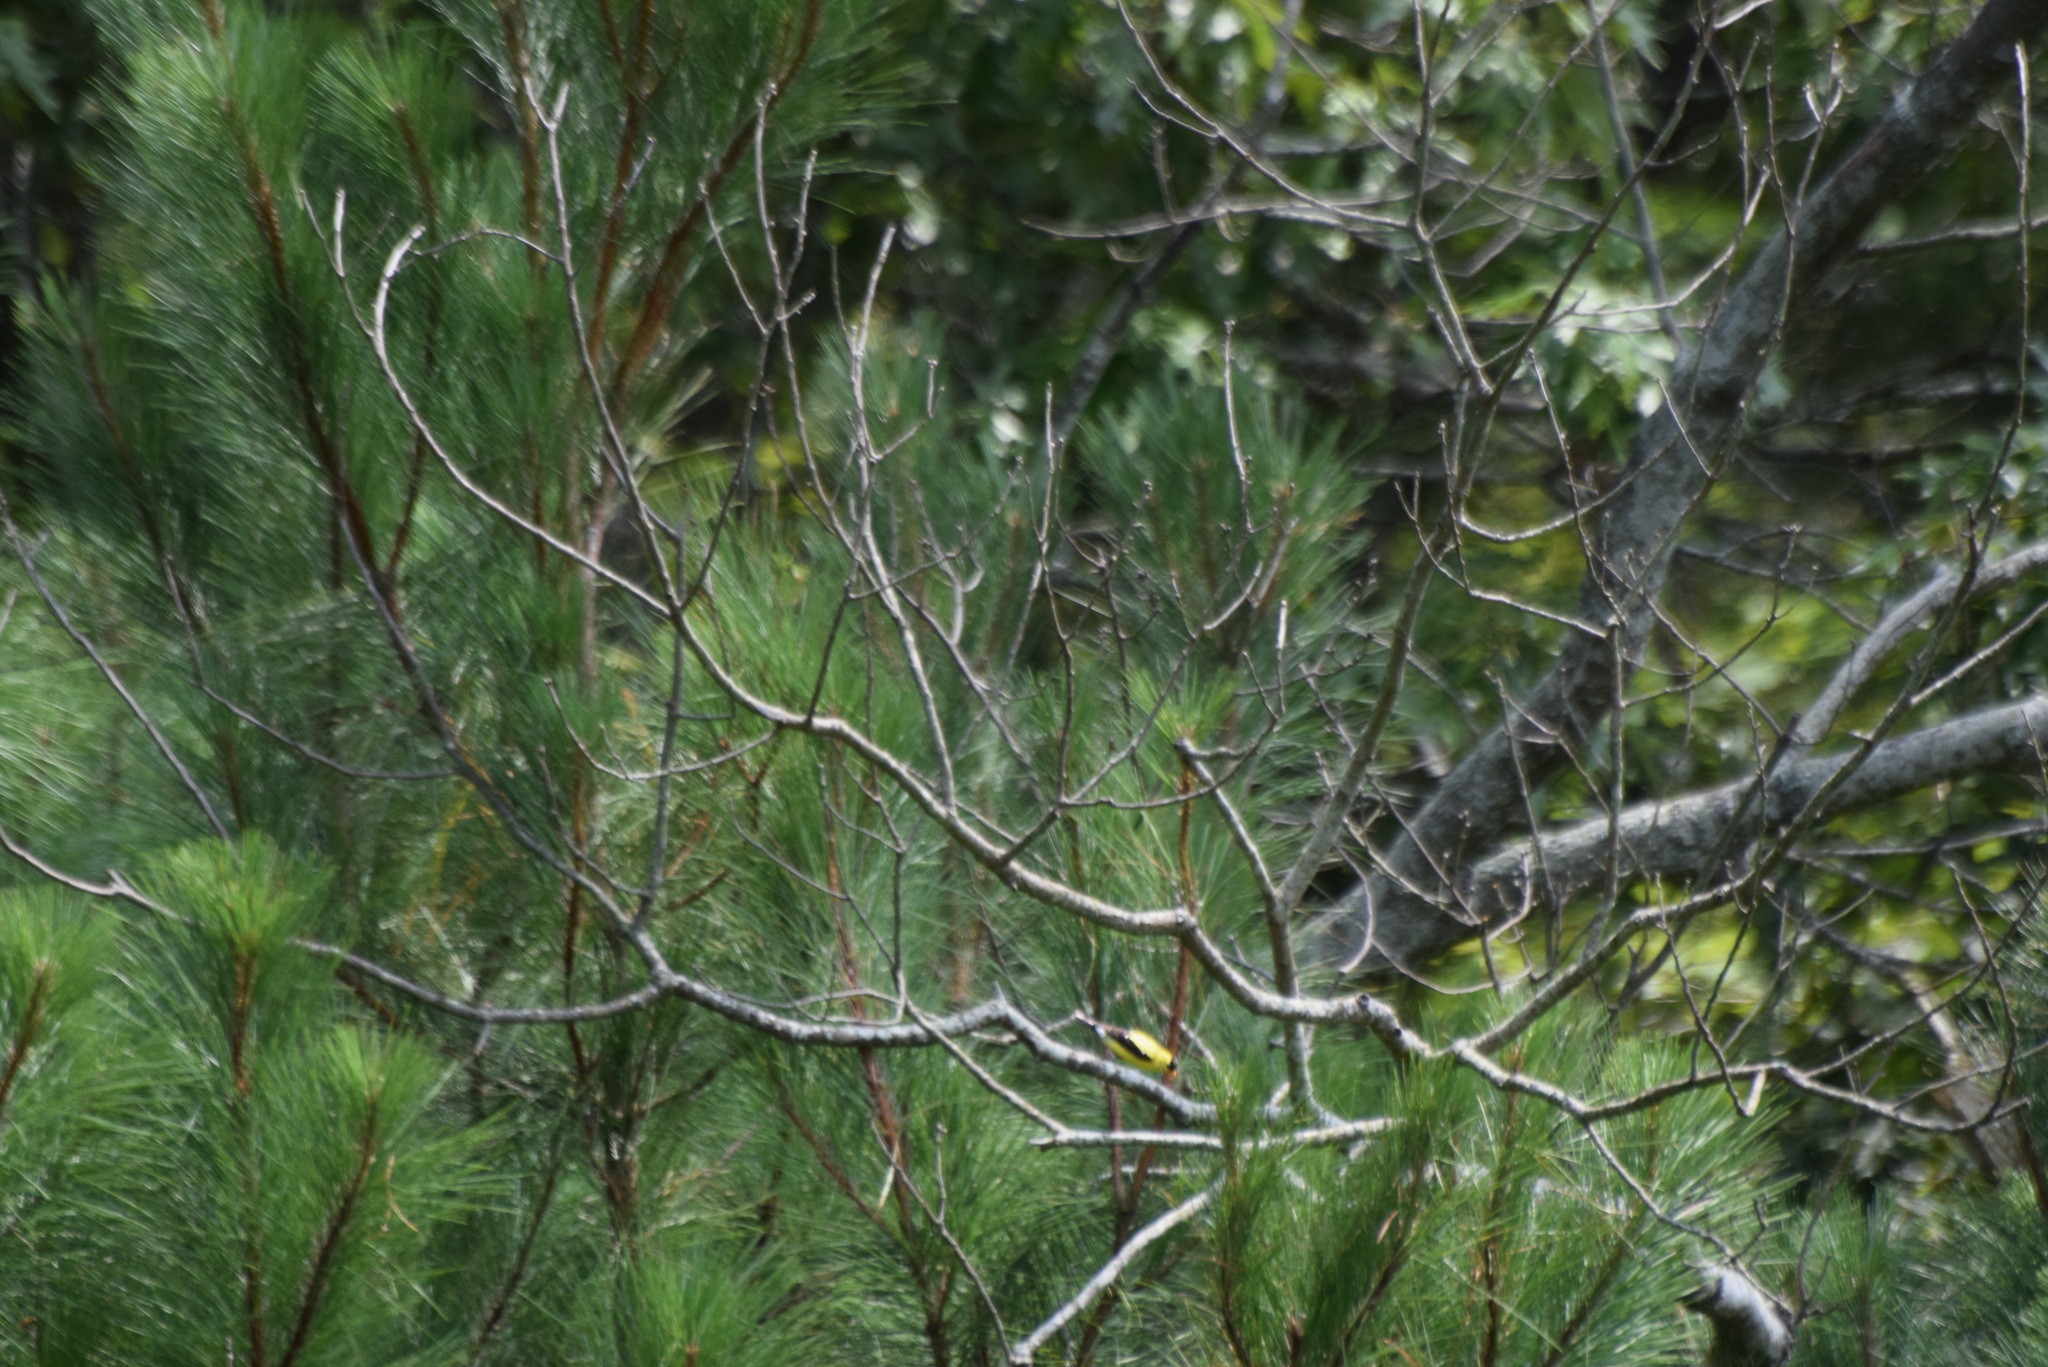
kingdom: Animalia
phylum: Chordata
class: Aves
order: Passeriformes
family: Fringillidae
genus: Spinus
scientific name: Spinus tristis
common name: American goldfinch
